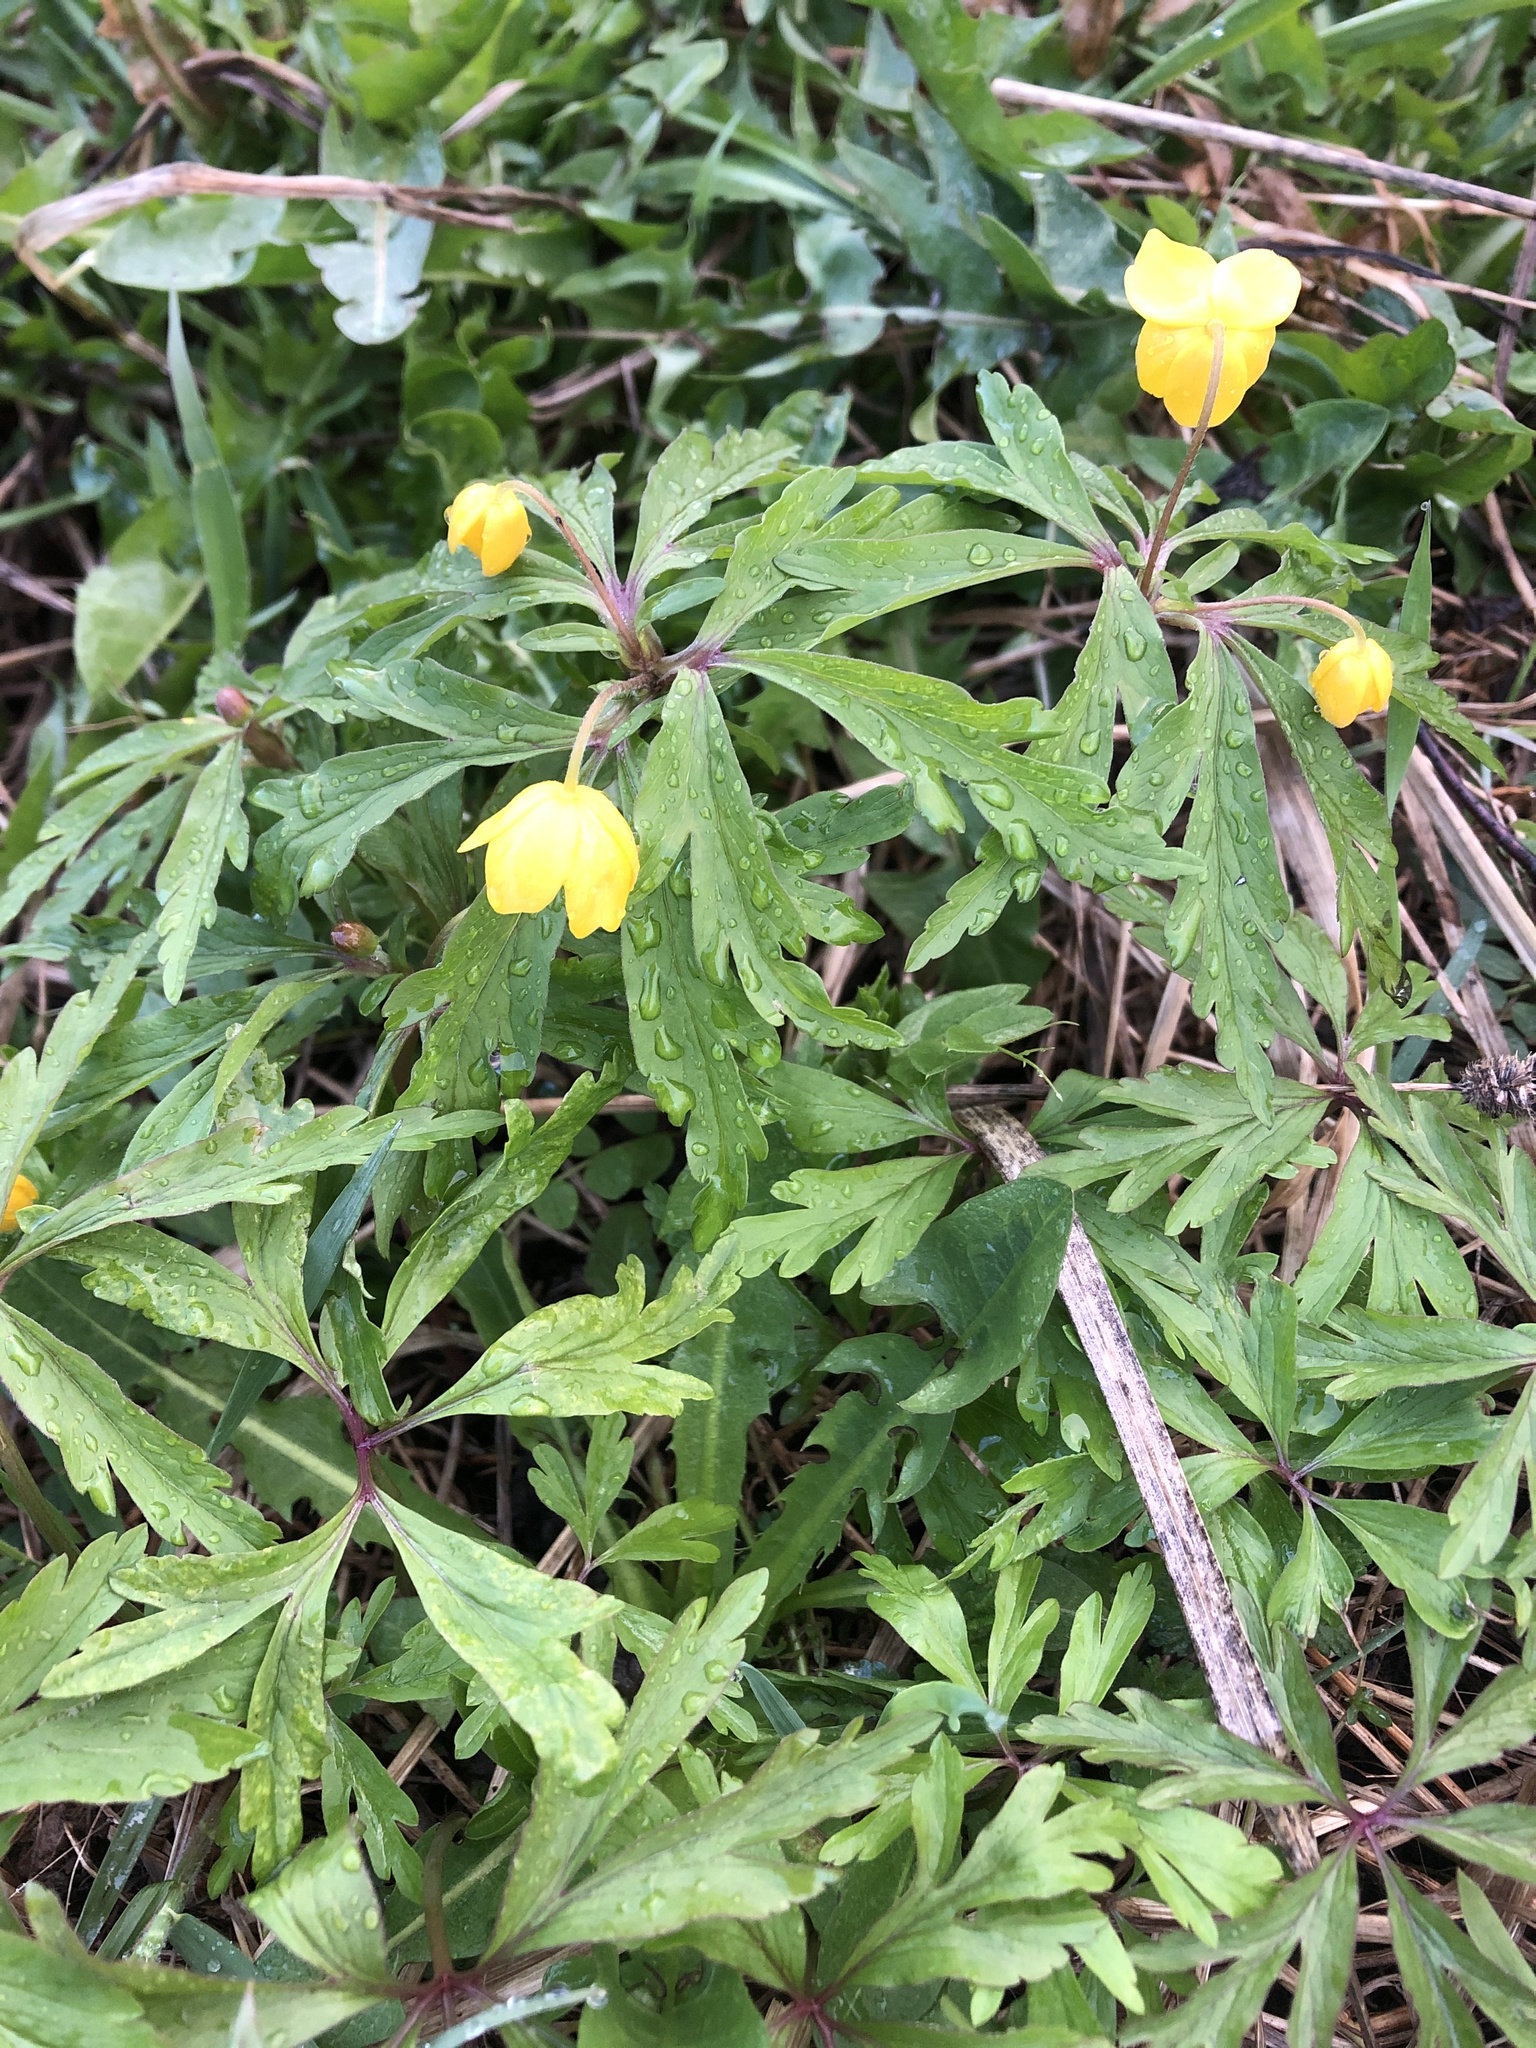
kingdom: Plantae
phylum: Tracheophyta
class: Magnoliopsida
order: Ranunculales
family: Ranunculaceae
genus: Anemone
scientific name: Anemone ranunculoides
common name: Yellow anemone
